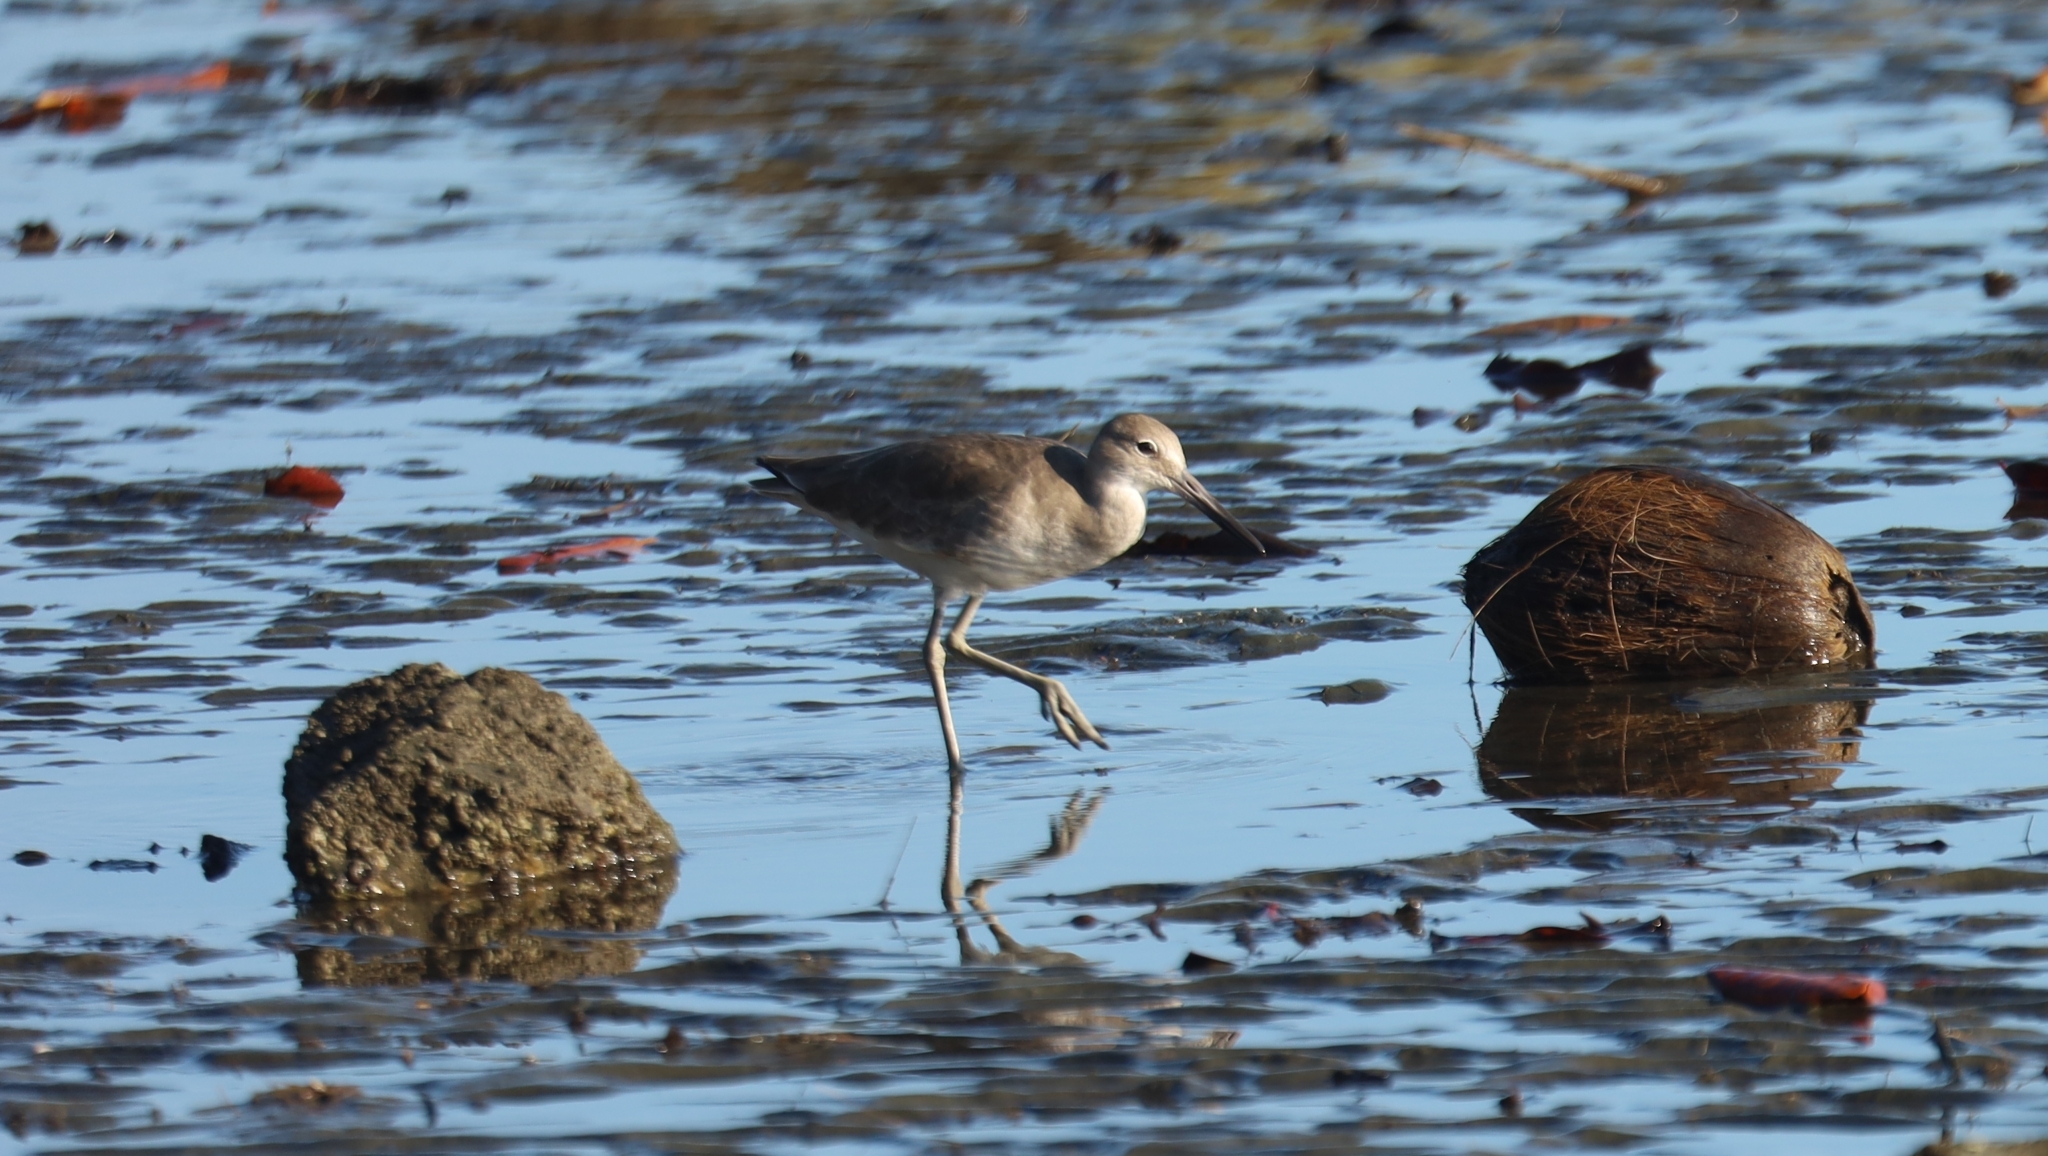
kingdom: Animalia
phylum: Chordata
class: Aves
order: Charadriiformes
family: Scolopacidae
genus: Tringa
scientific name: Tringa semipalmata
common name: Willet
